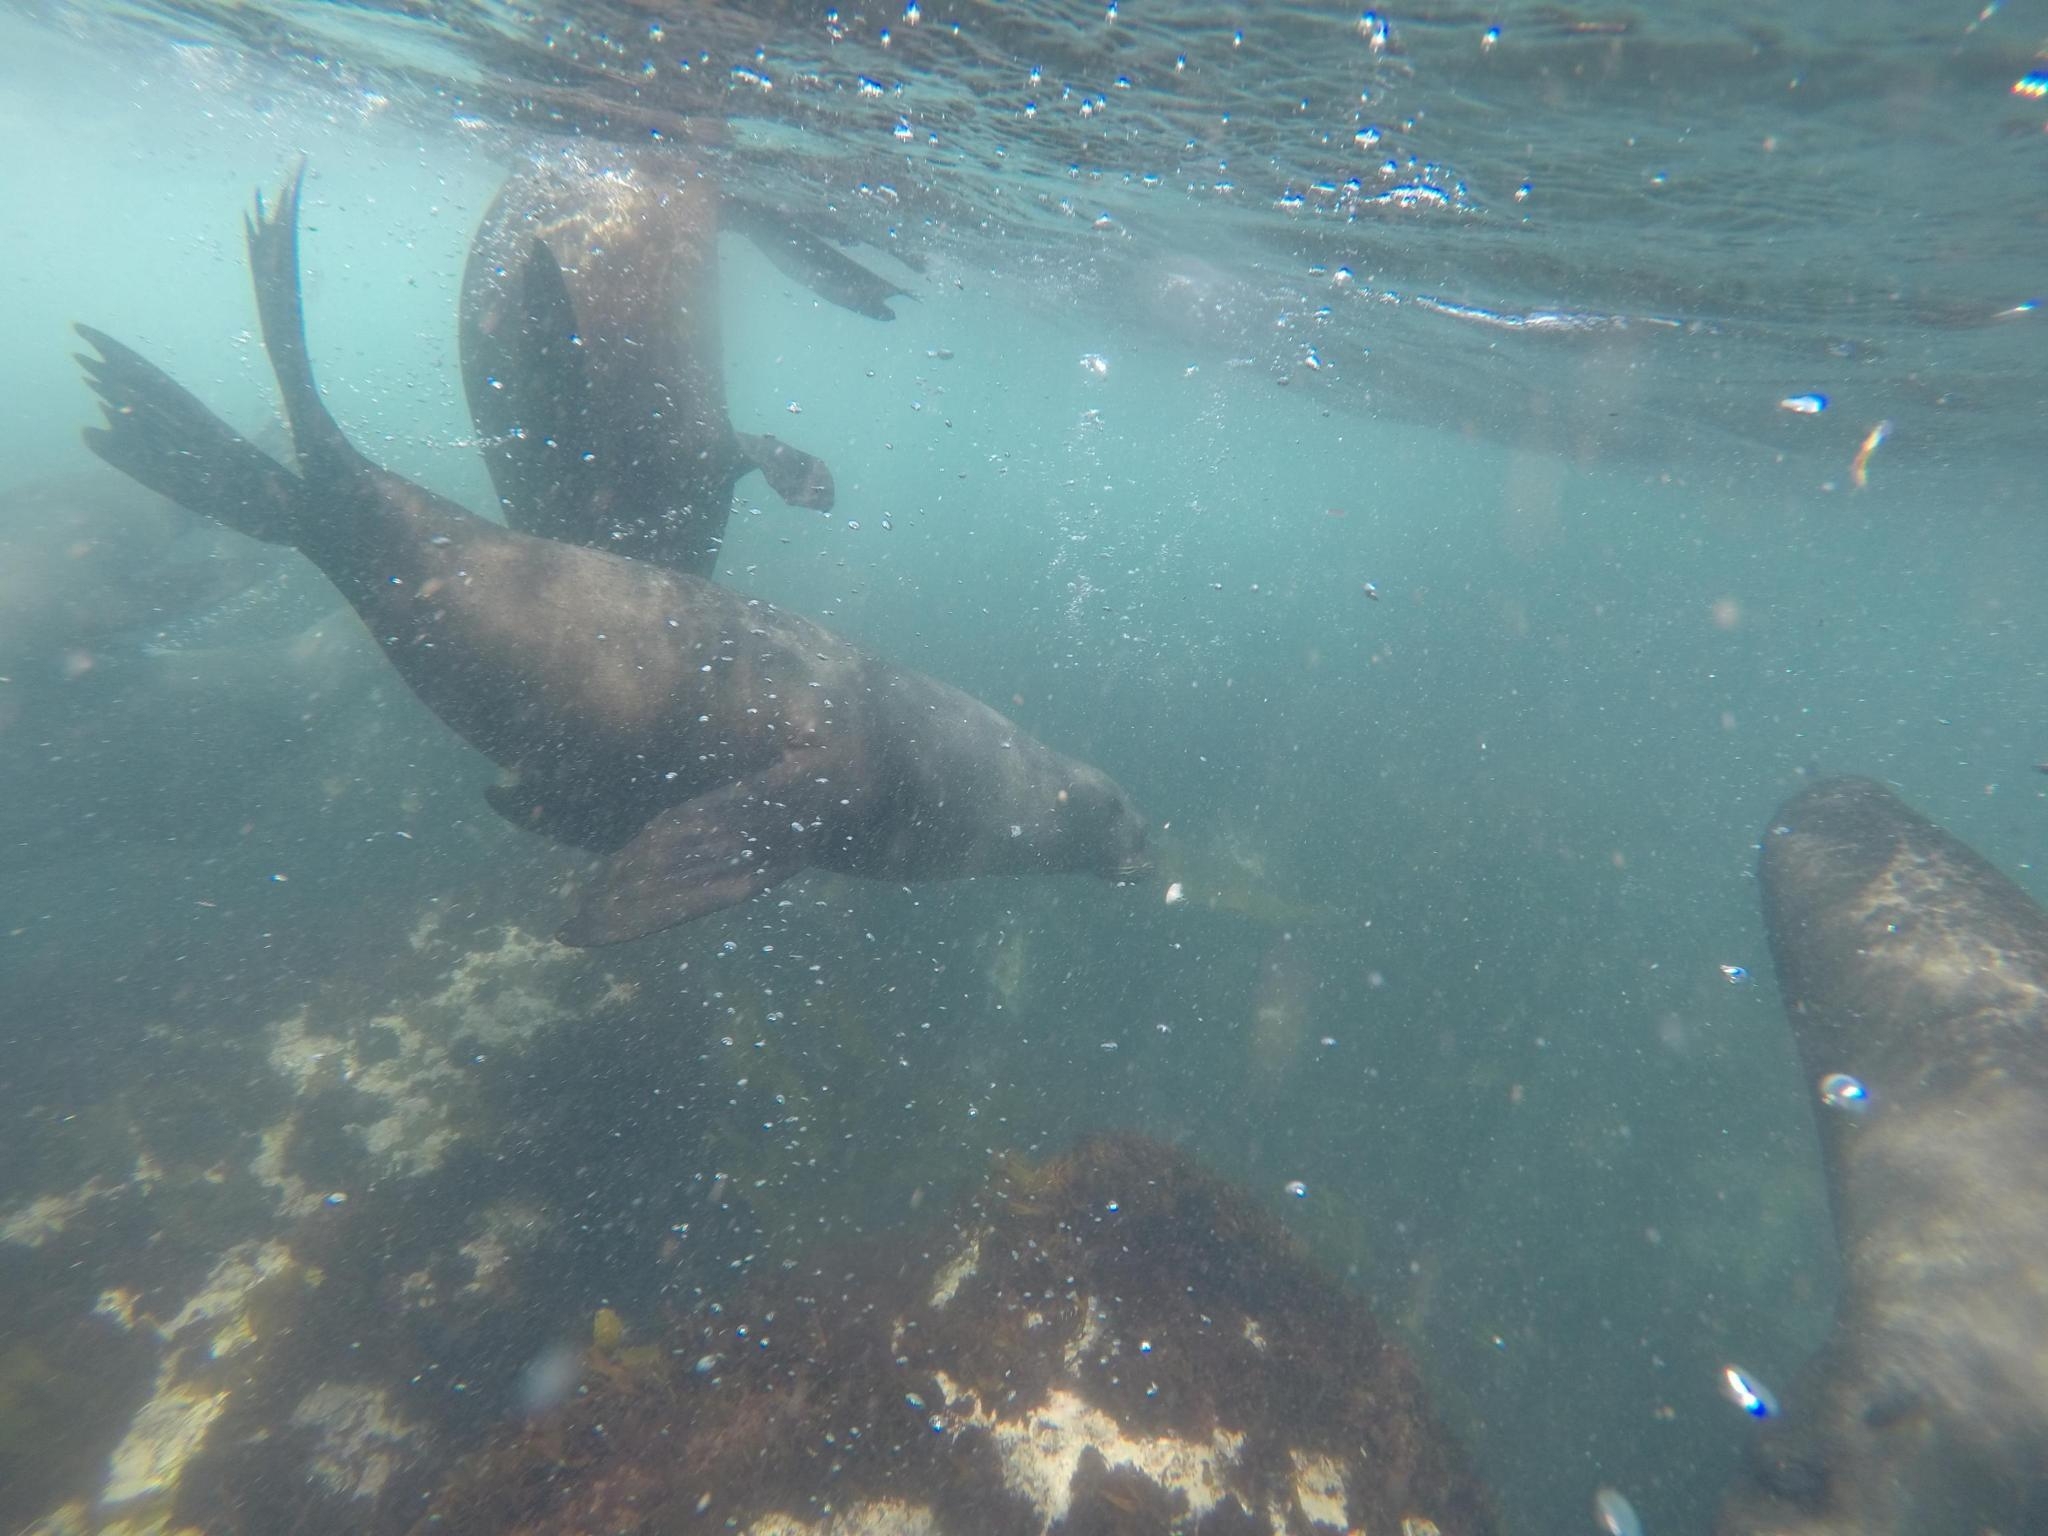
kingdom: Animalia
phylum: Chordata
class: Mammalia
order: Carnivora
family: Otariidae
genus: Arctocephalus
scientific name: Arctocephalus pusillus
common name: Brown fur seal
